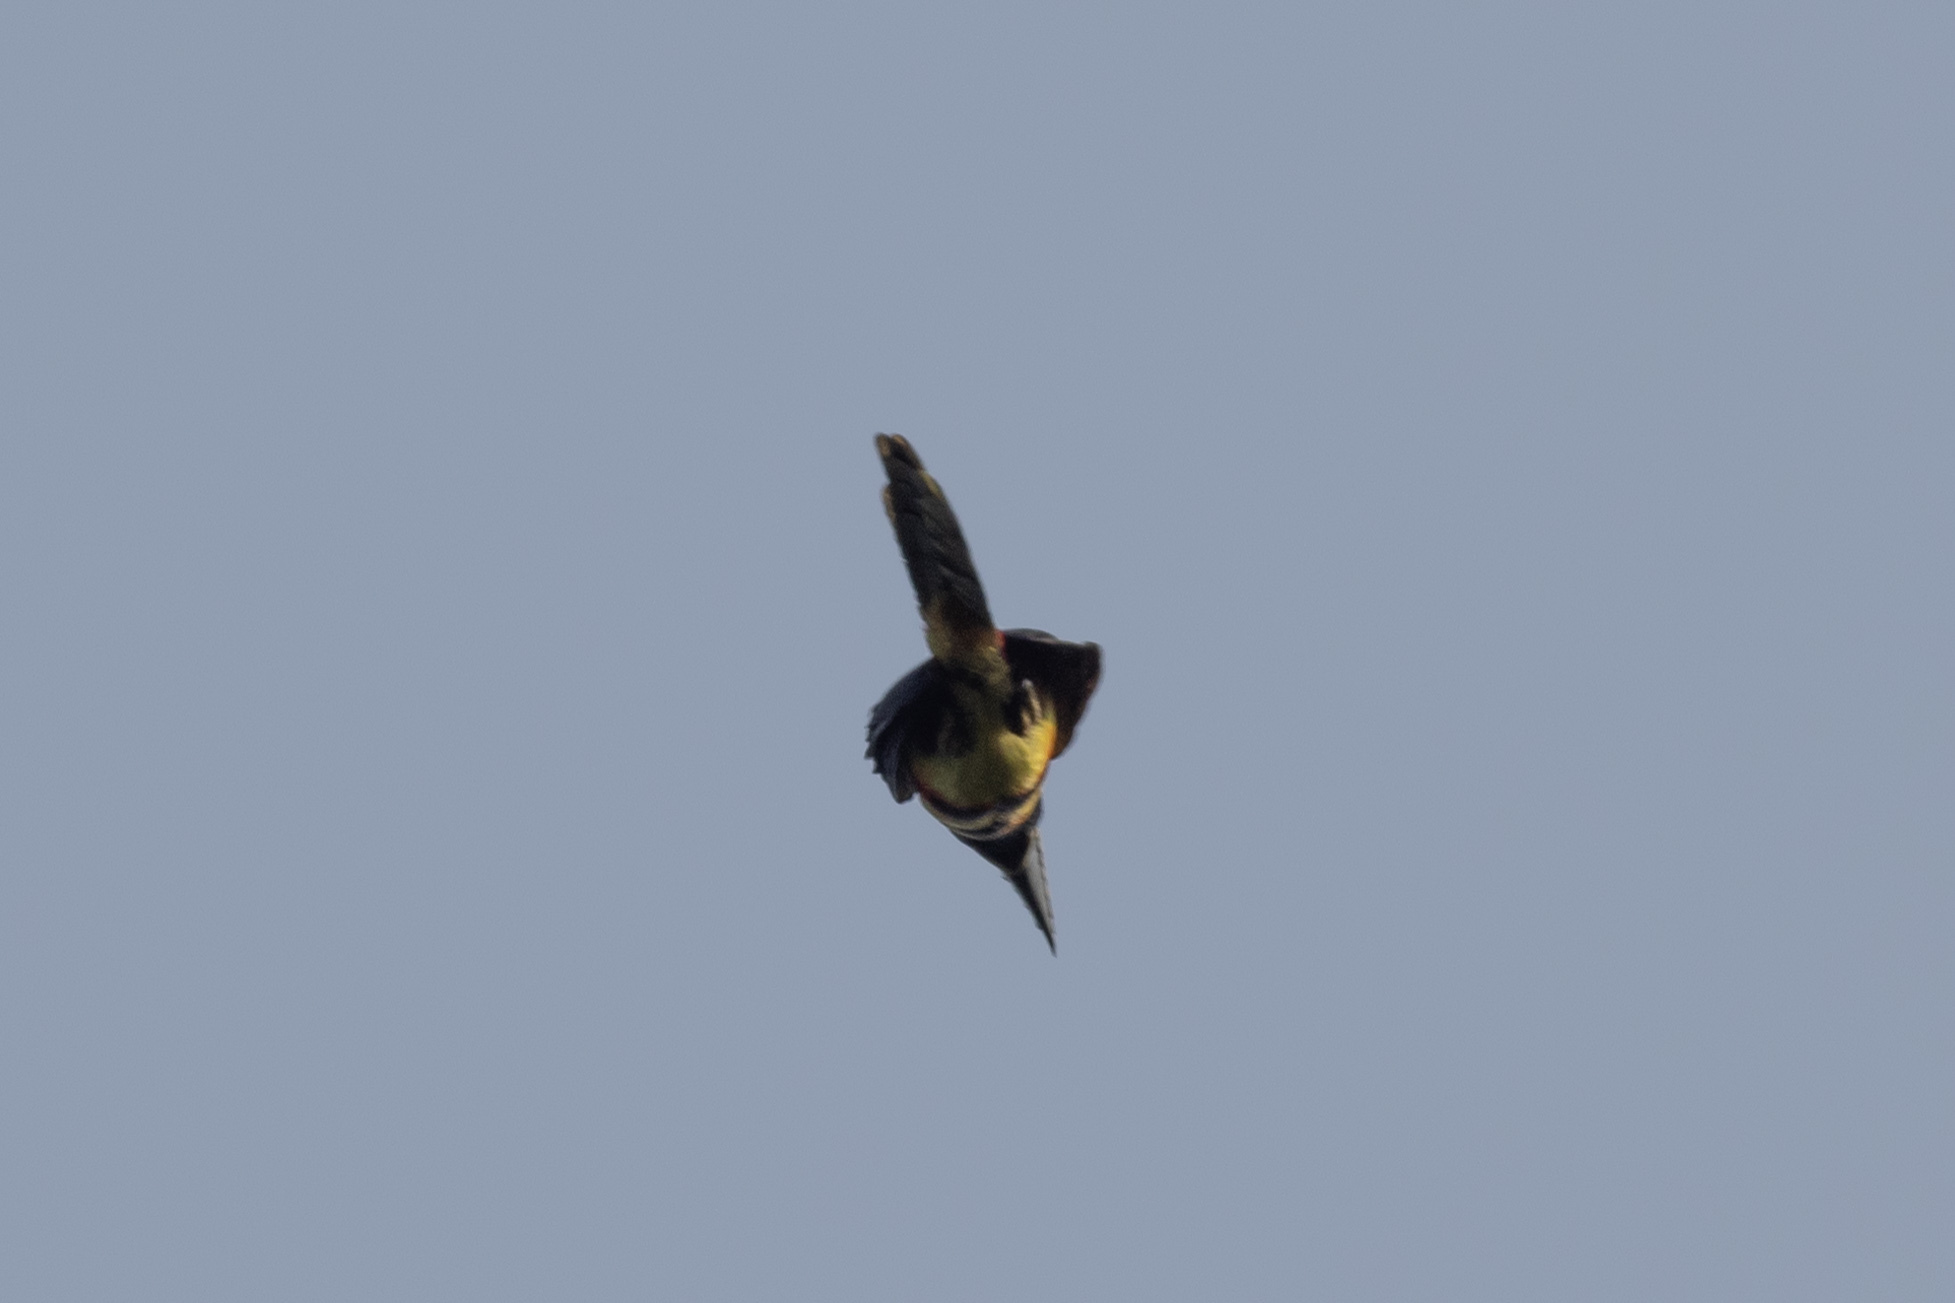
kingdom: Animalia
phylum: Chordata
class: Aves
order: Piciformes
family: Ramphastidae
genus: Pteroglossus
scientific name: Pteroglossus torquatus
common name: Collared aracari
